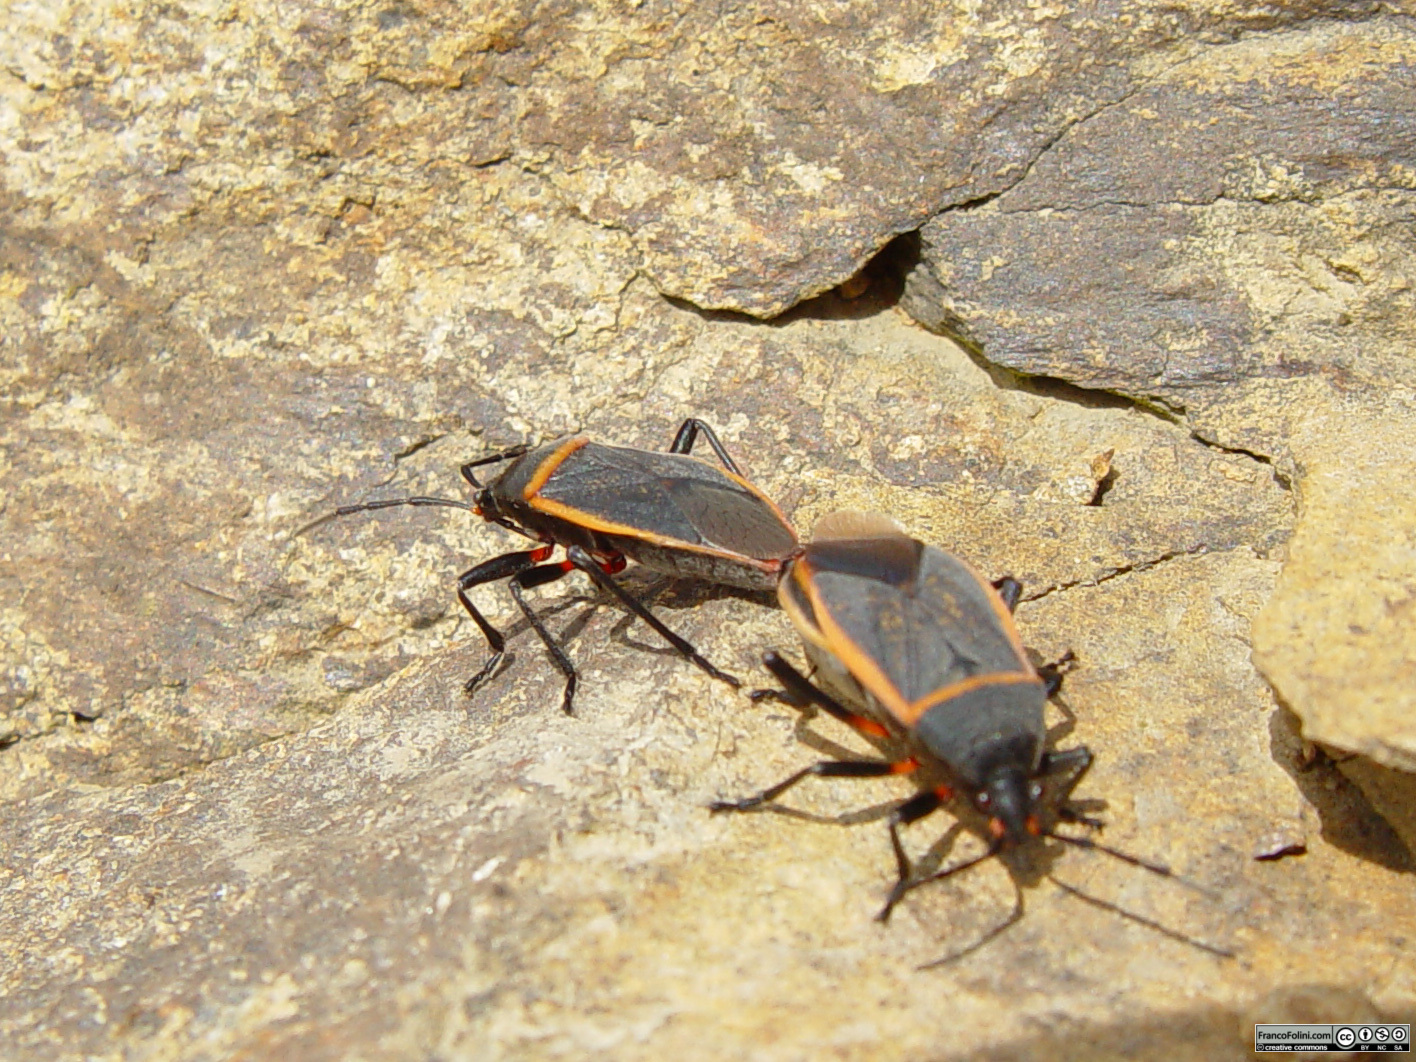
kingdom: Animalia
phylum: Arthropoda
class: Insecta
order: Hemiptera
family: Largidae
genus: Largus
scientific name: Largus californicus
